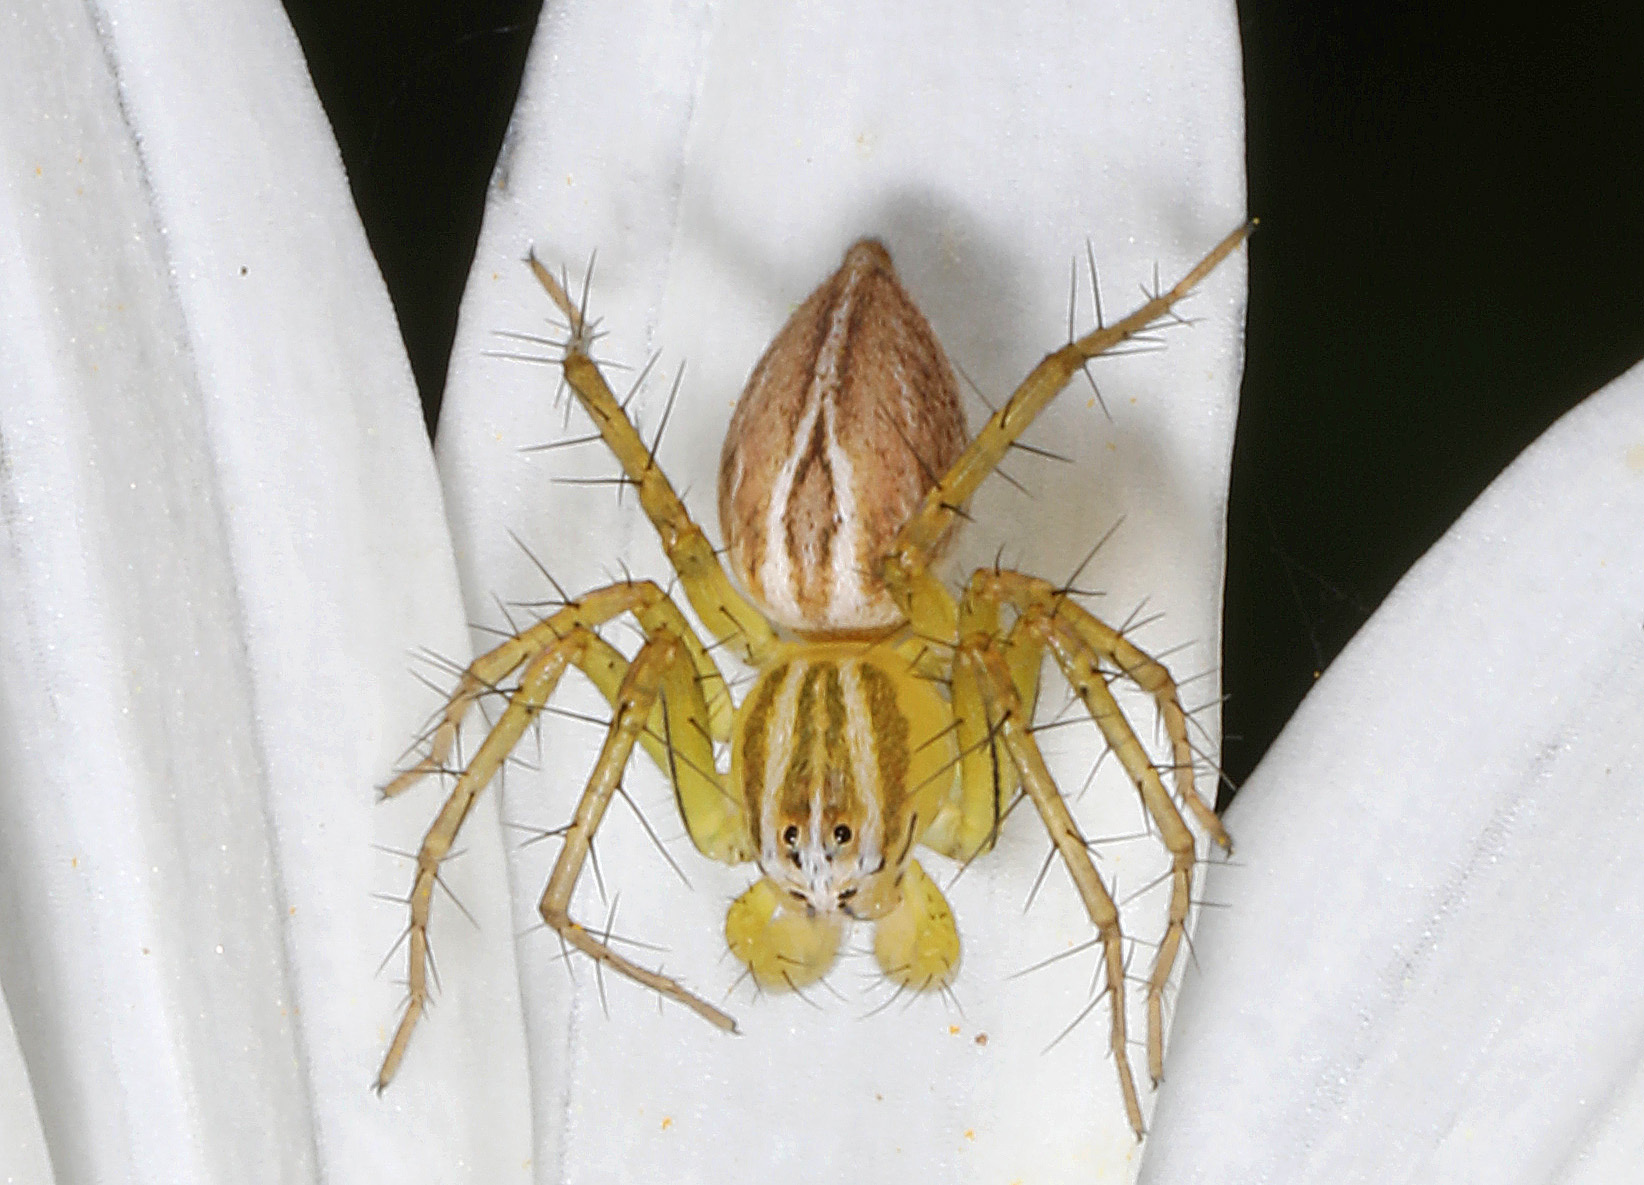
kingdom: Animalia
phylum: Arthropoda
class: Arachnida
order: Araneae
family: Oxyopidae
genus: Oxyopes
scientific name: Oxyopes salticus
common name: Lynx spiders
